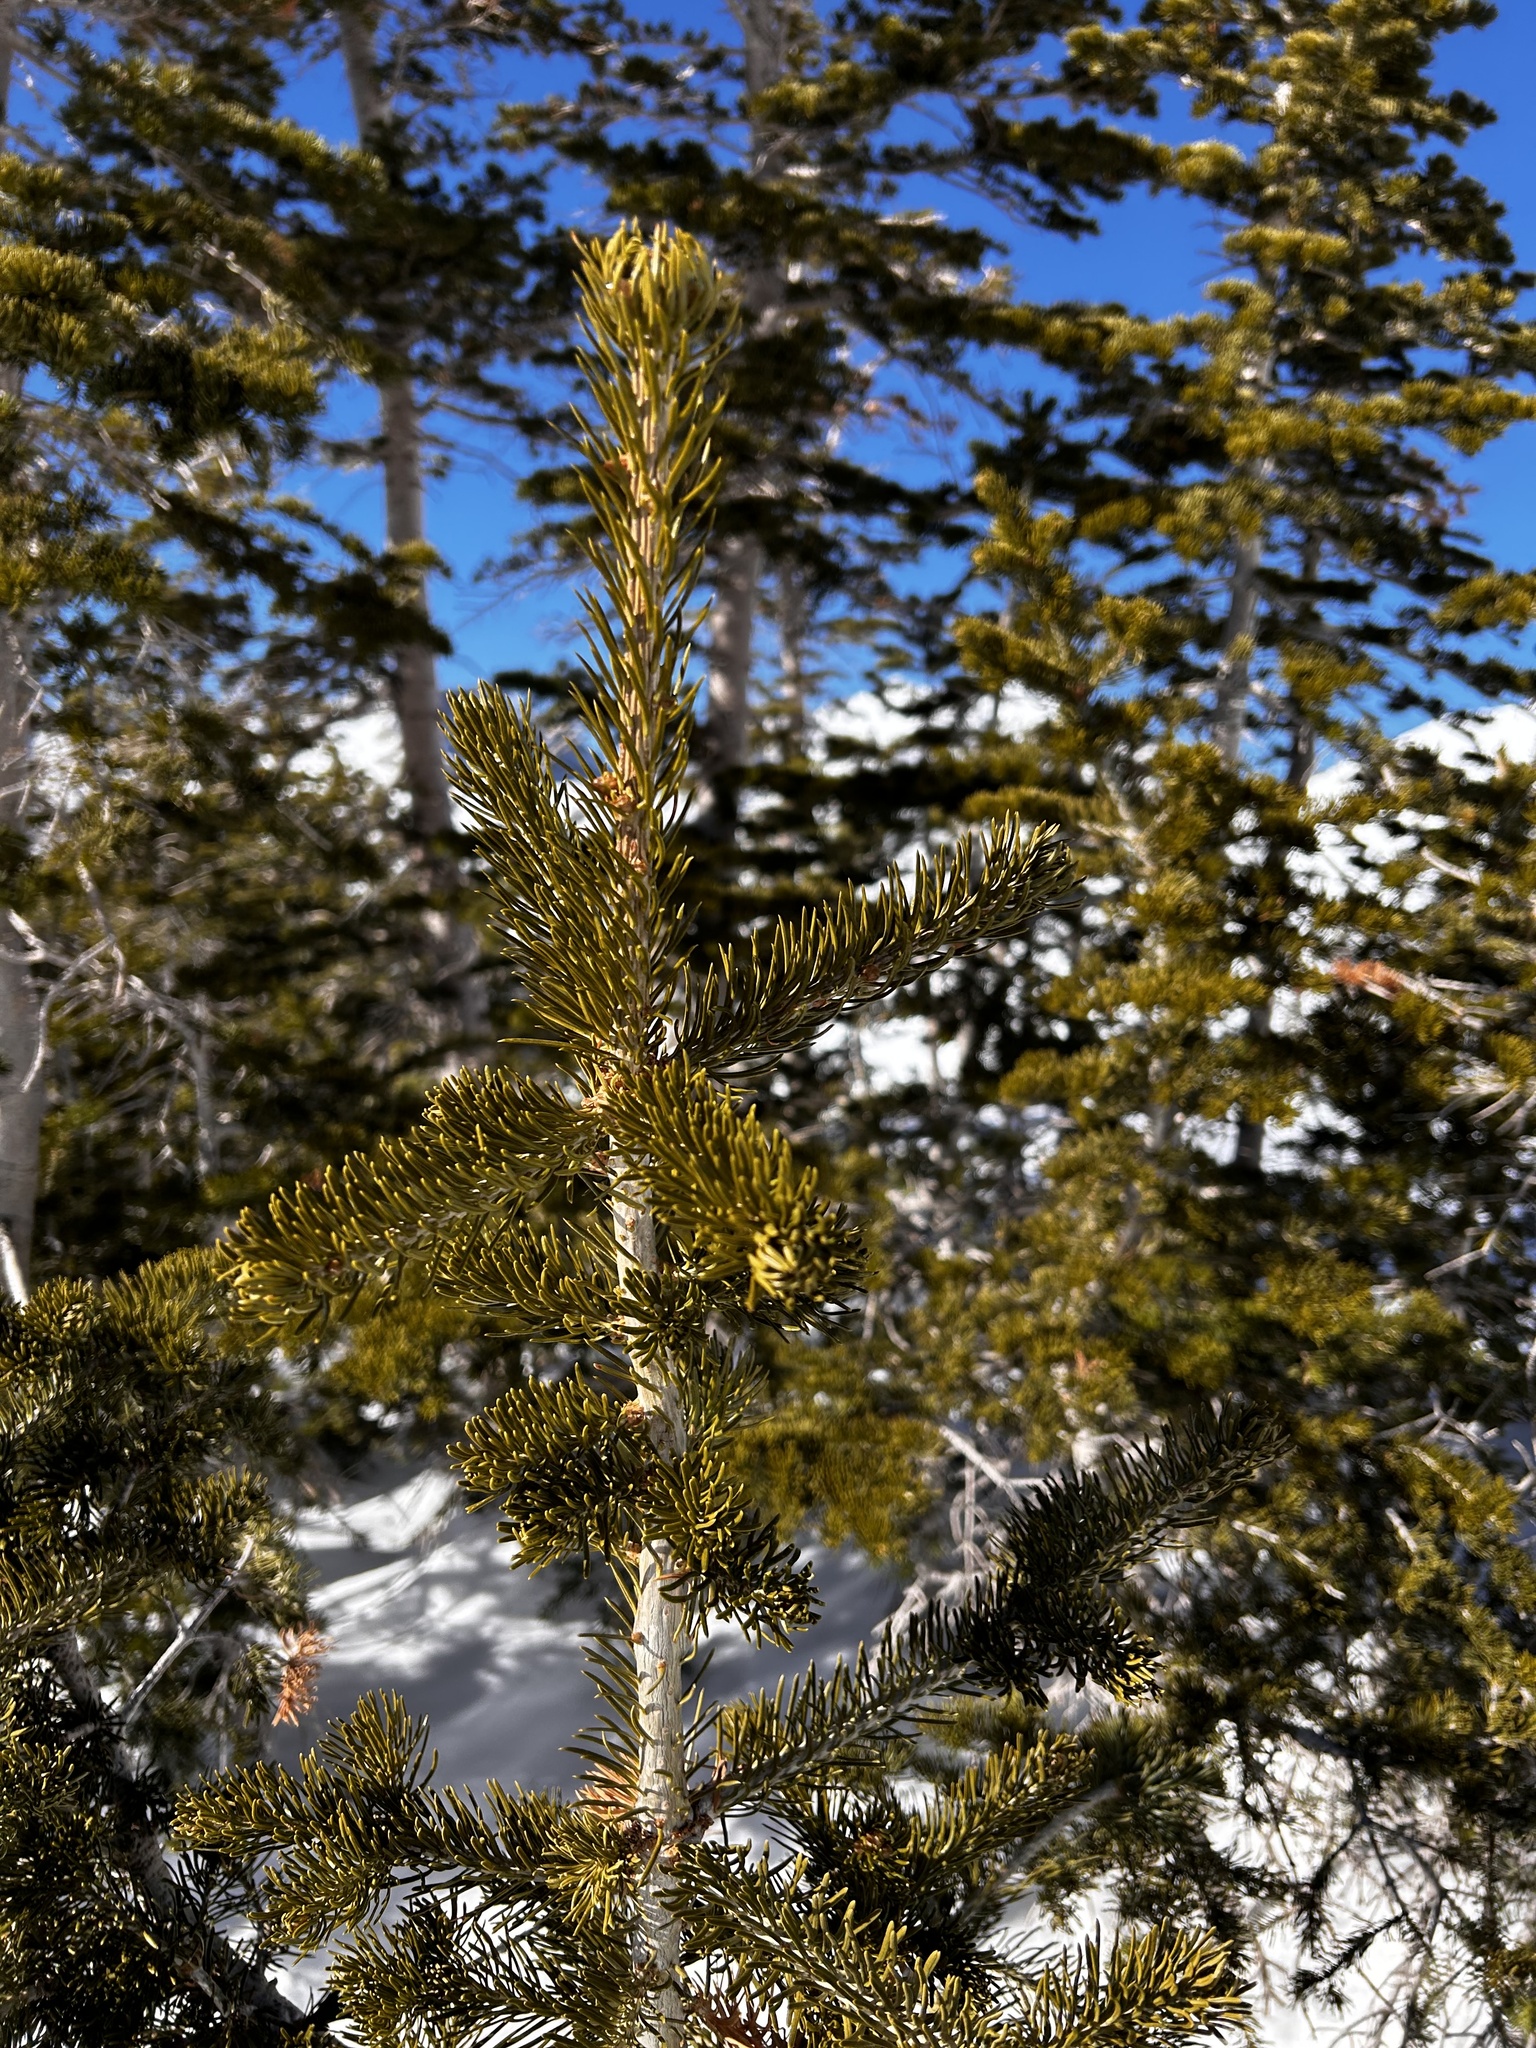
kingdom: Plantae
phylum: Tracheophyta
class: Pinopsida
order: Pinales
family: Pinaceae
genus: Abies
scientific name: Abies lasiocarpa
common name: Subalpine fir
